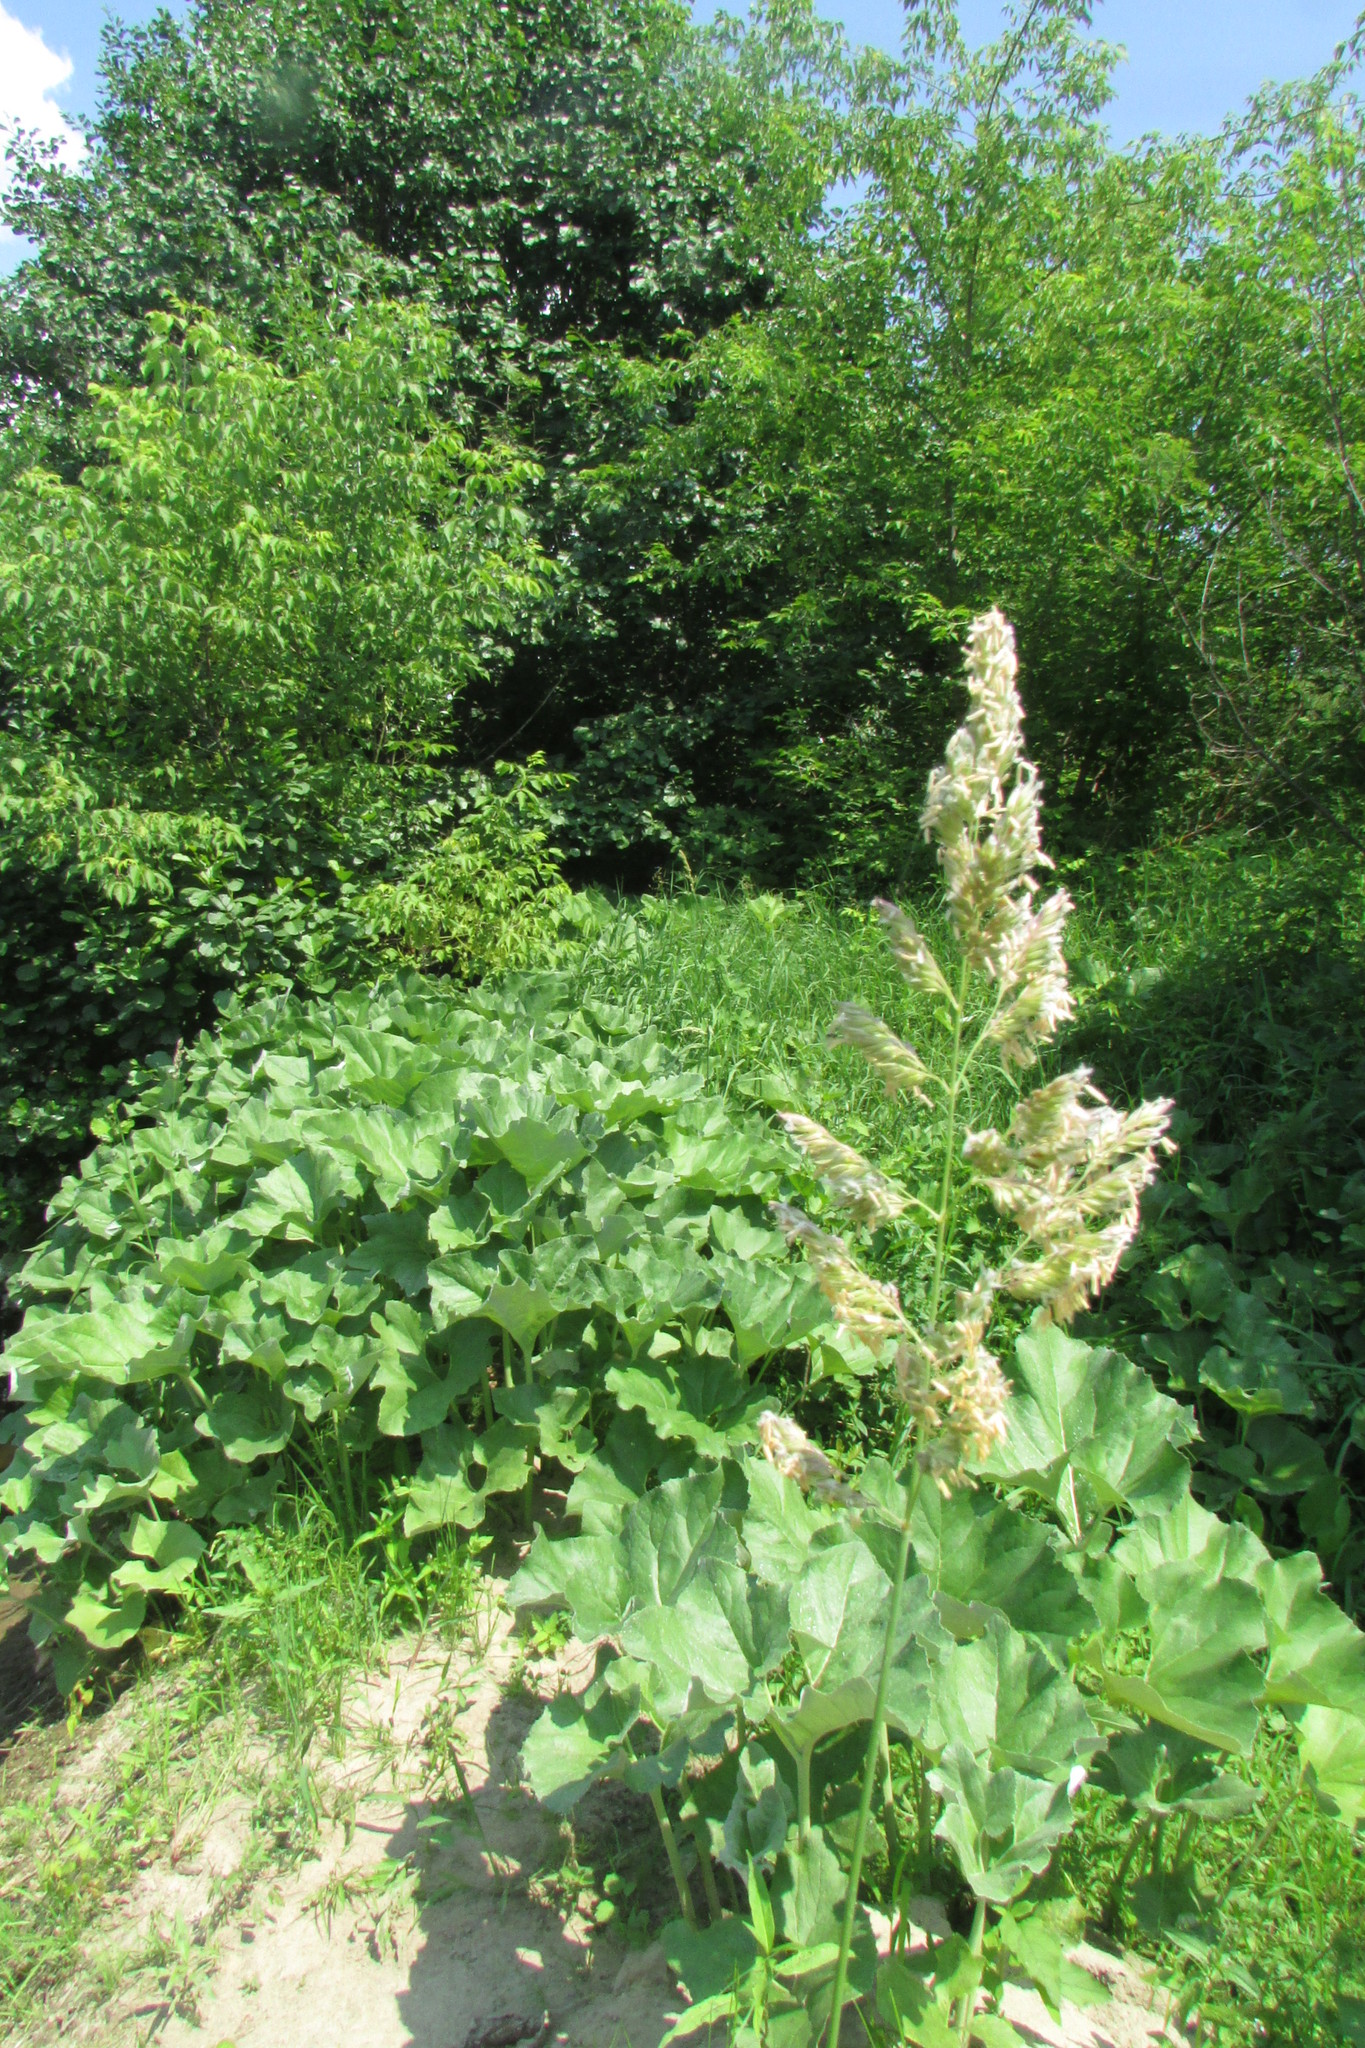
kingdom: Plantae
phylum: Tracheophyta
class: Liliopsida
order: Poales
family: Poaceae
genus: Phalaris
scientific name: Phalaris arundinacea
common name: Reed canary-grass
